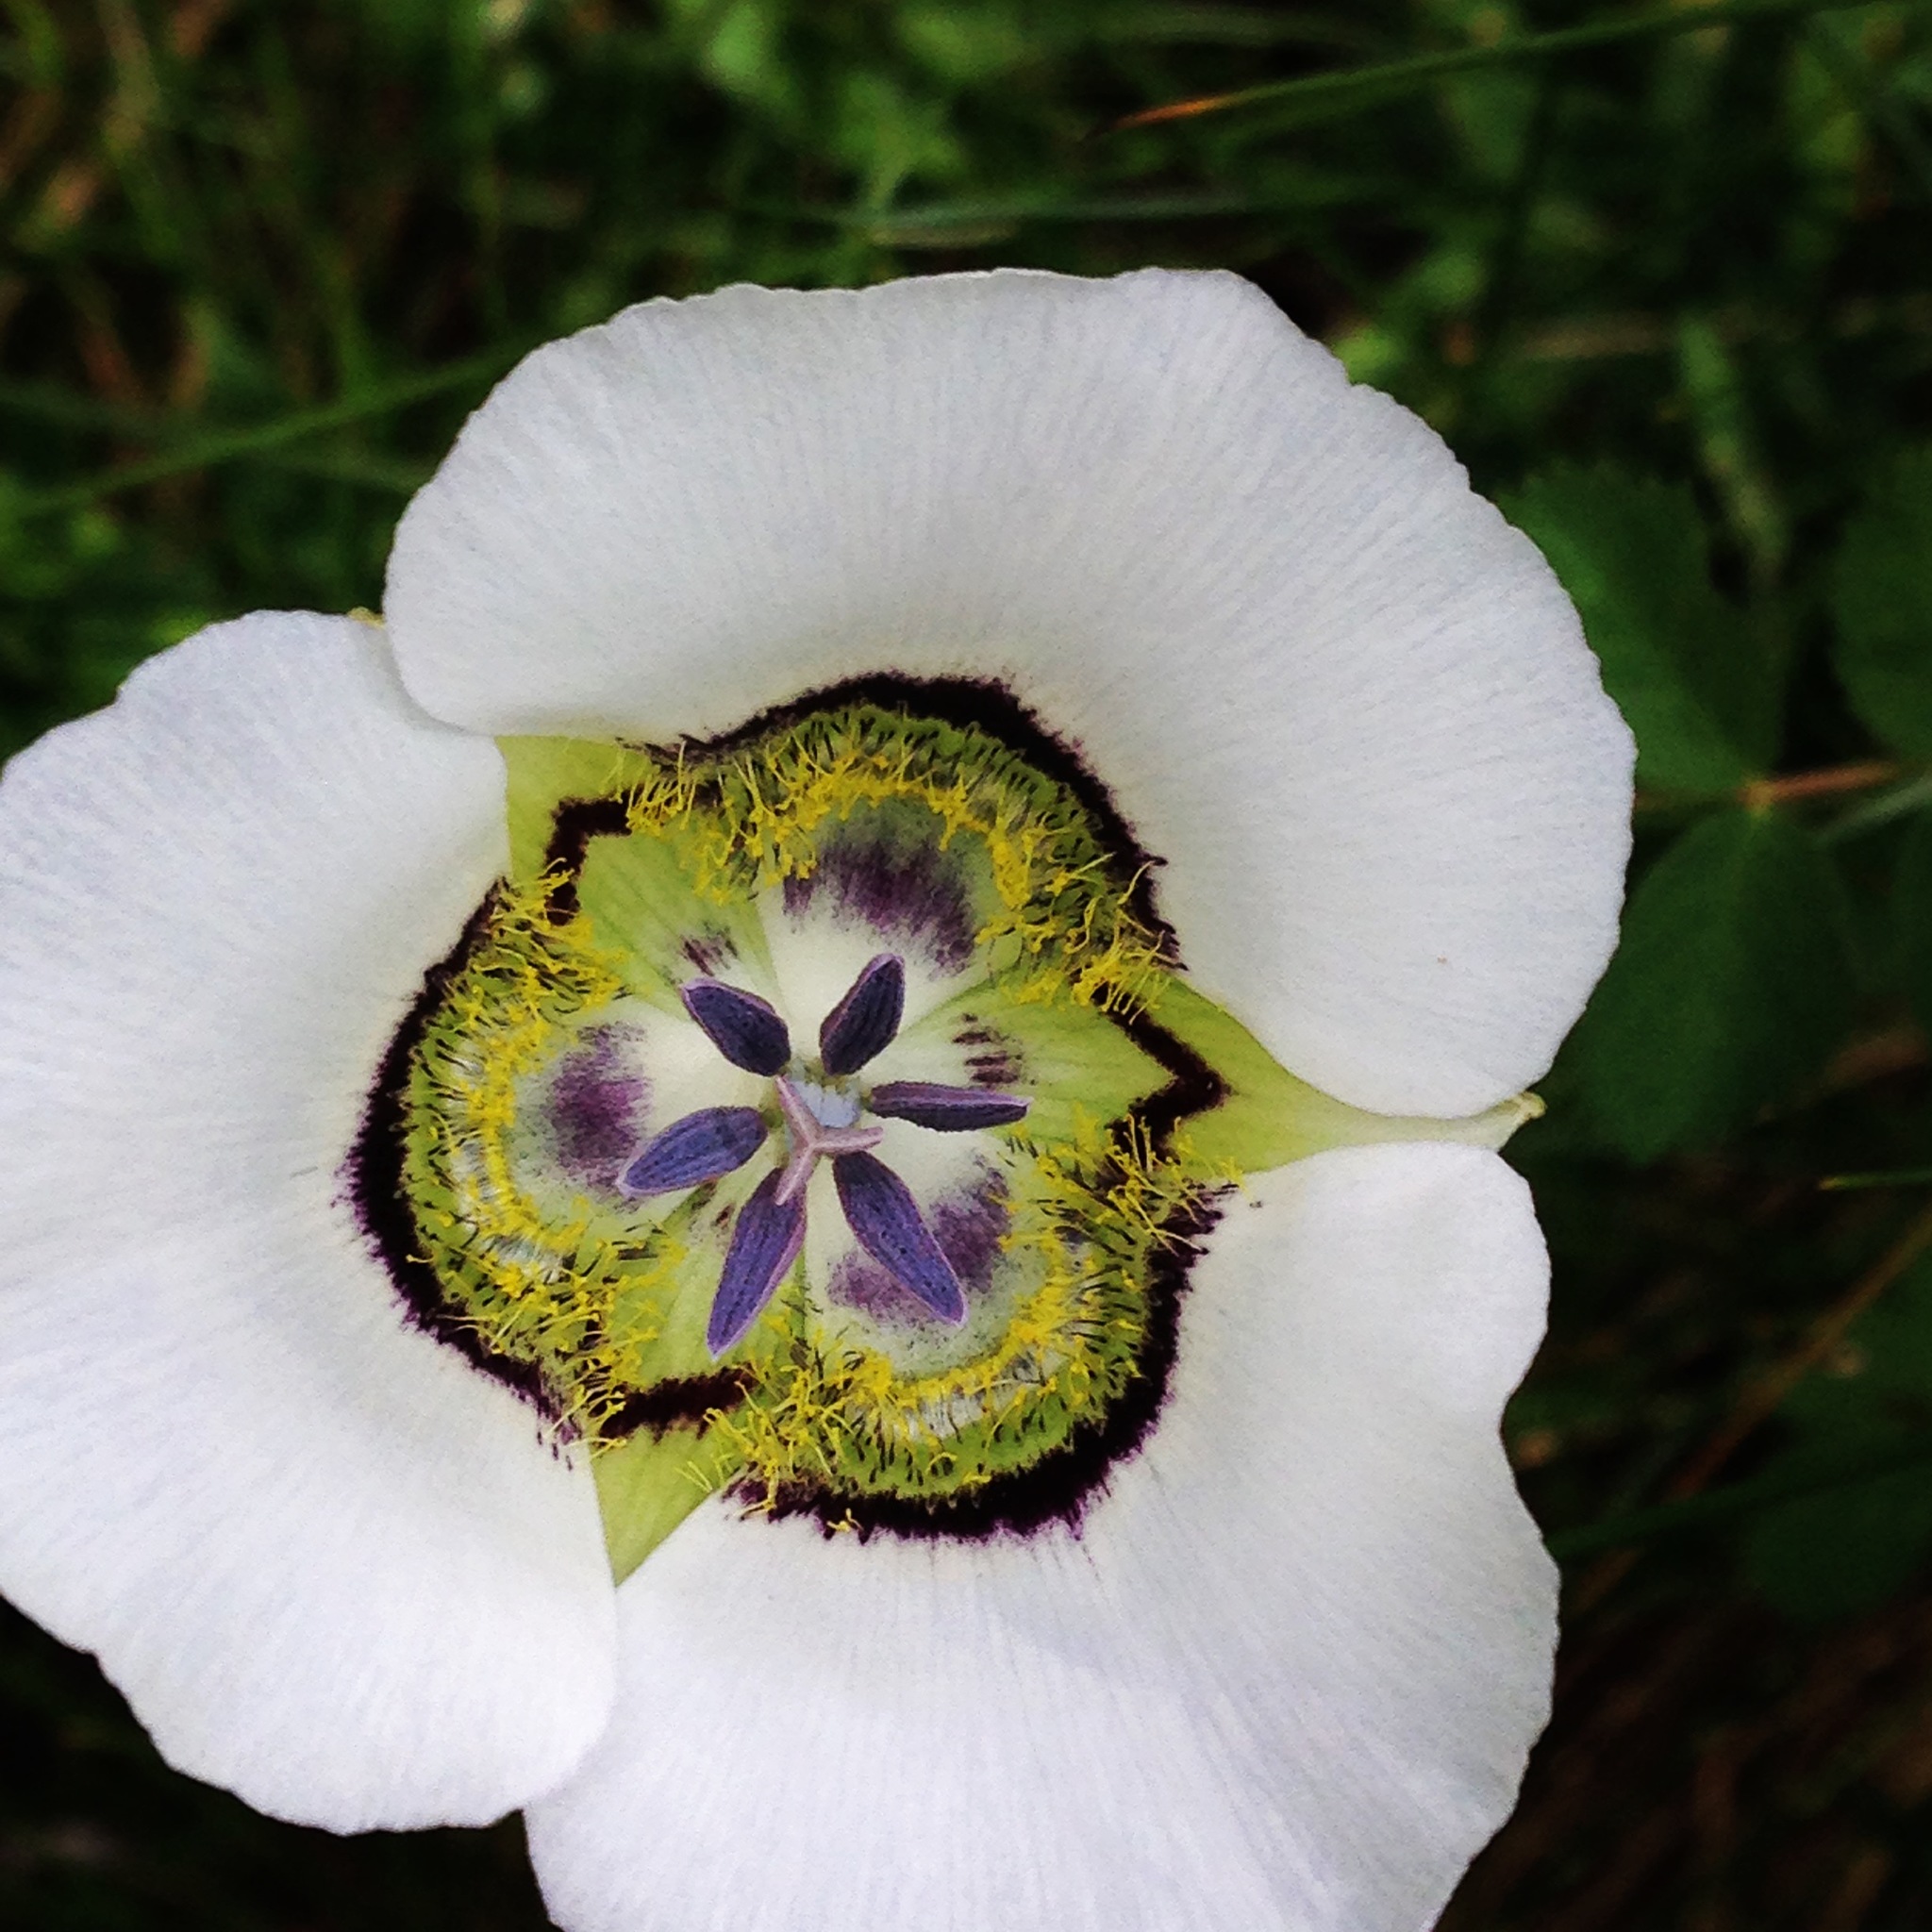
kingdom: Plantae
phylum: Tracheophyta
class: Liliopsida
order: Liliales
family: Liliaceae
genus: Calochortus
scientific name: Calochortus gunnisonii
